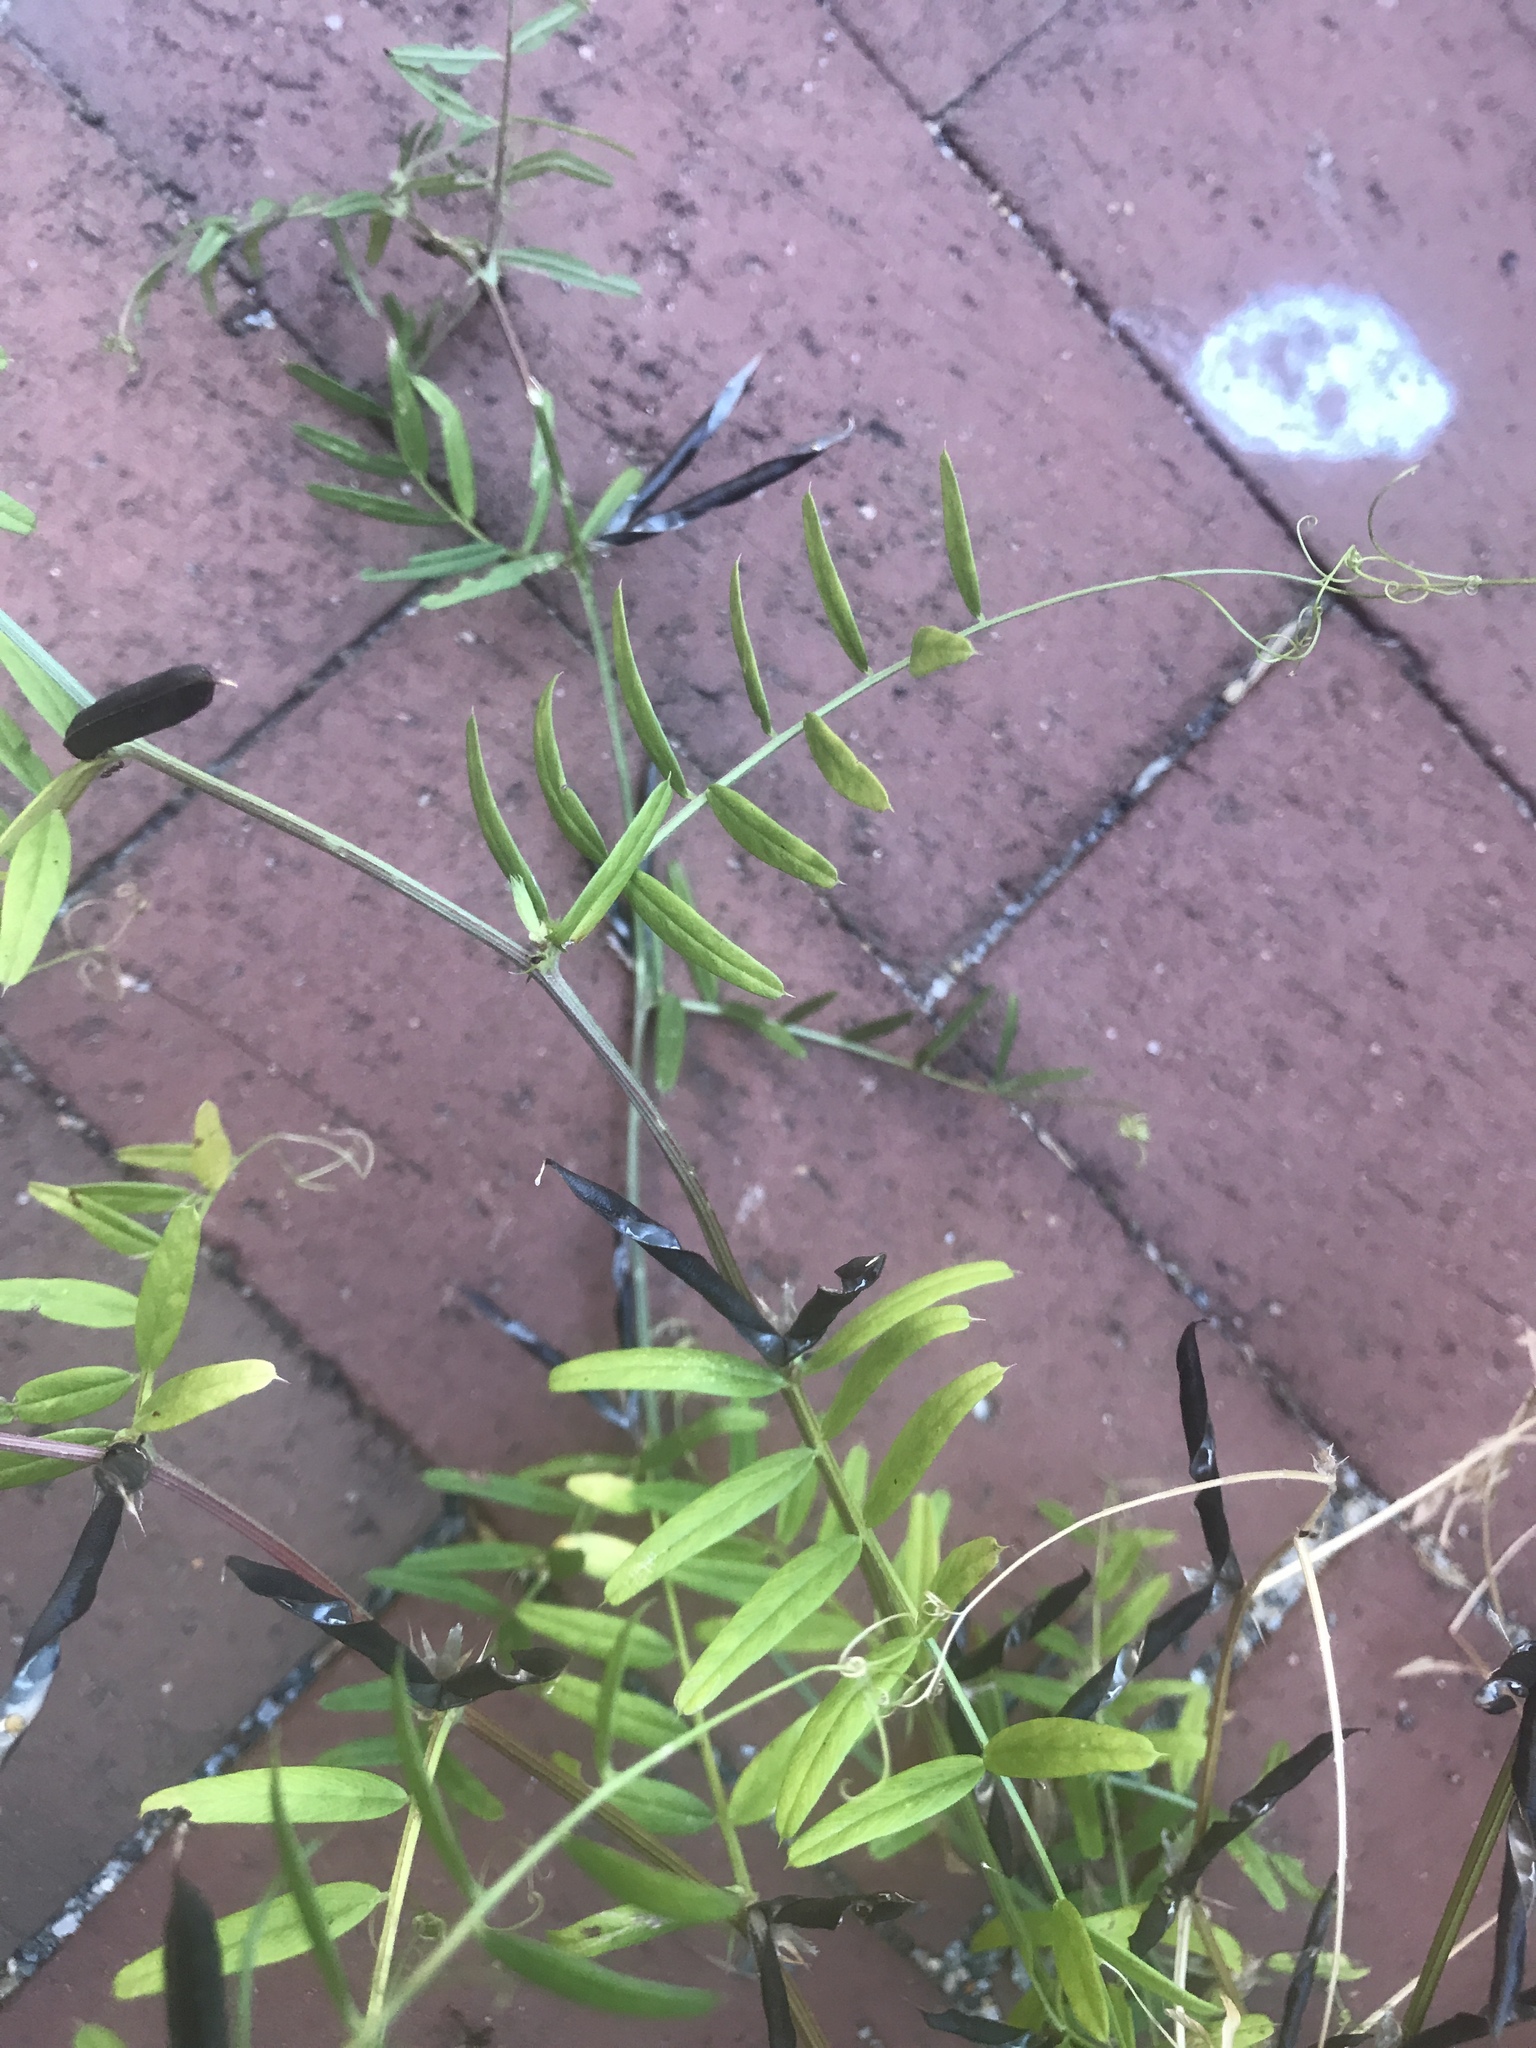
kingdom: Plantae
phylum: Tracheophyta
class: Magnoliopsida
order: Fabales
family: Fabaceae
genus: Vicia
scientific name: Vicia sativa
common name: Garden vetch
